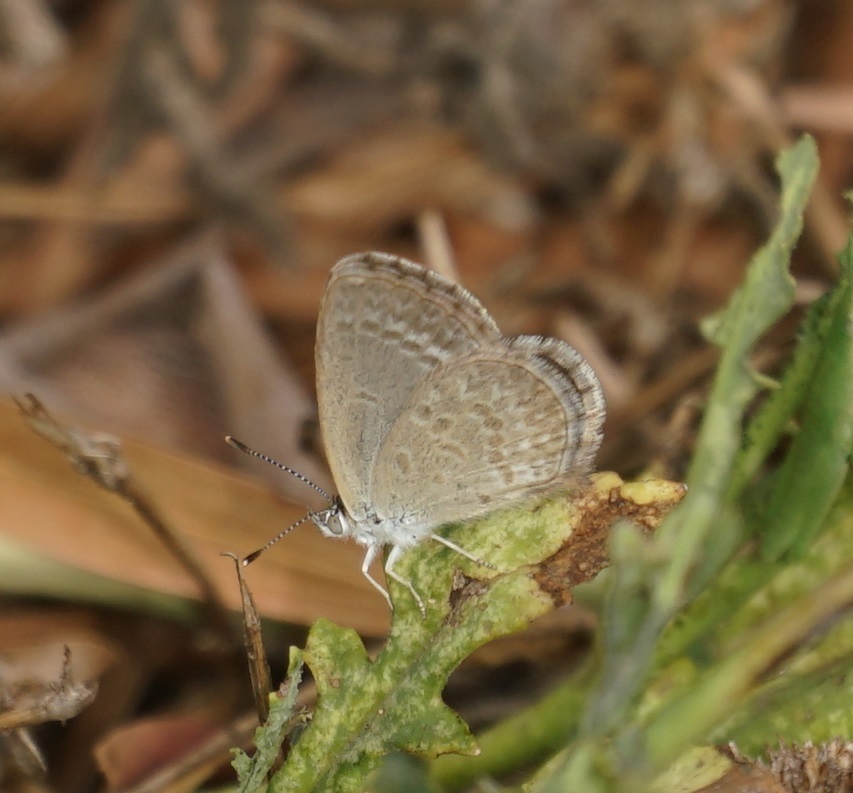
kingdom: Animalia
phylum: Arthropoda
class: Insecta
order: Lepidoptera
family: Lycaenidae
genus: Zizina
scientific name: Zizina labradus
